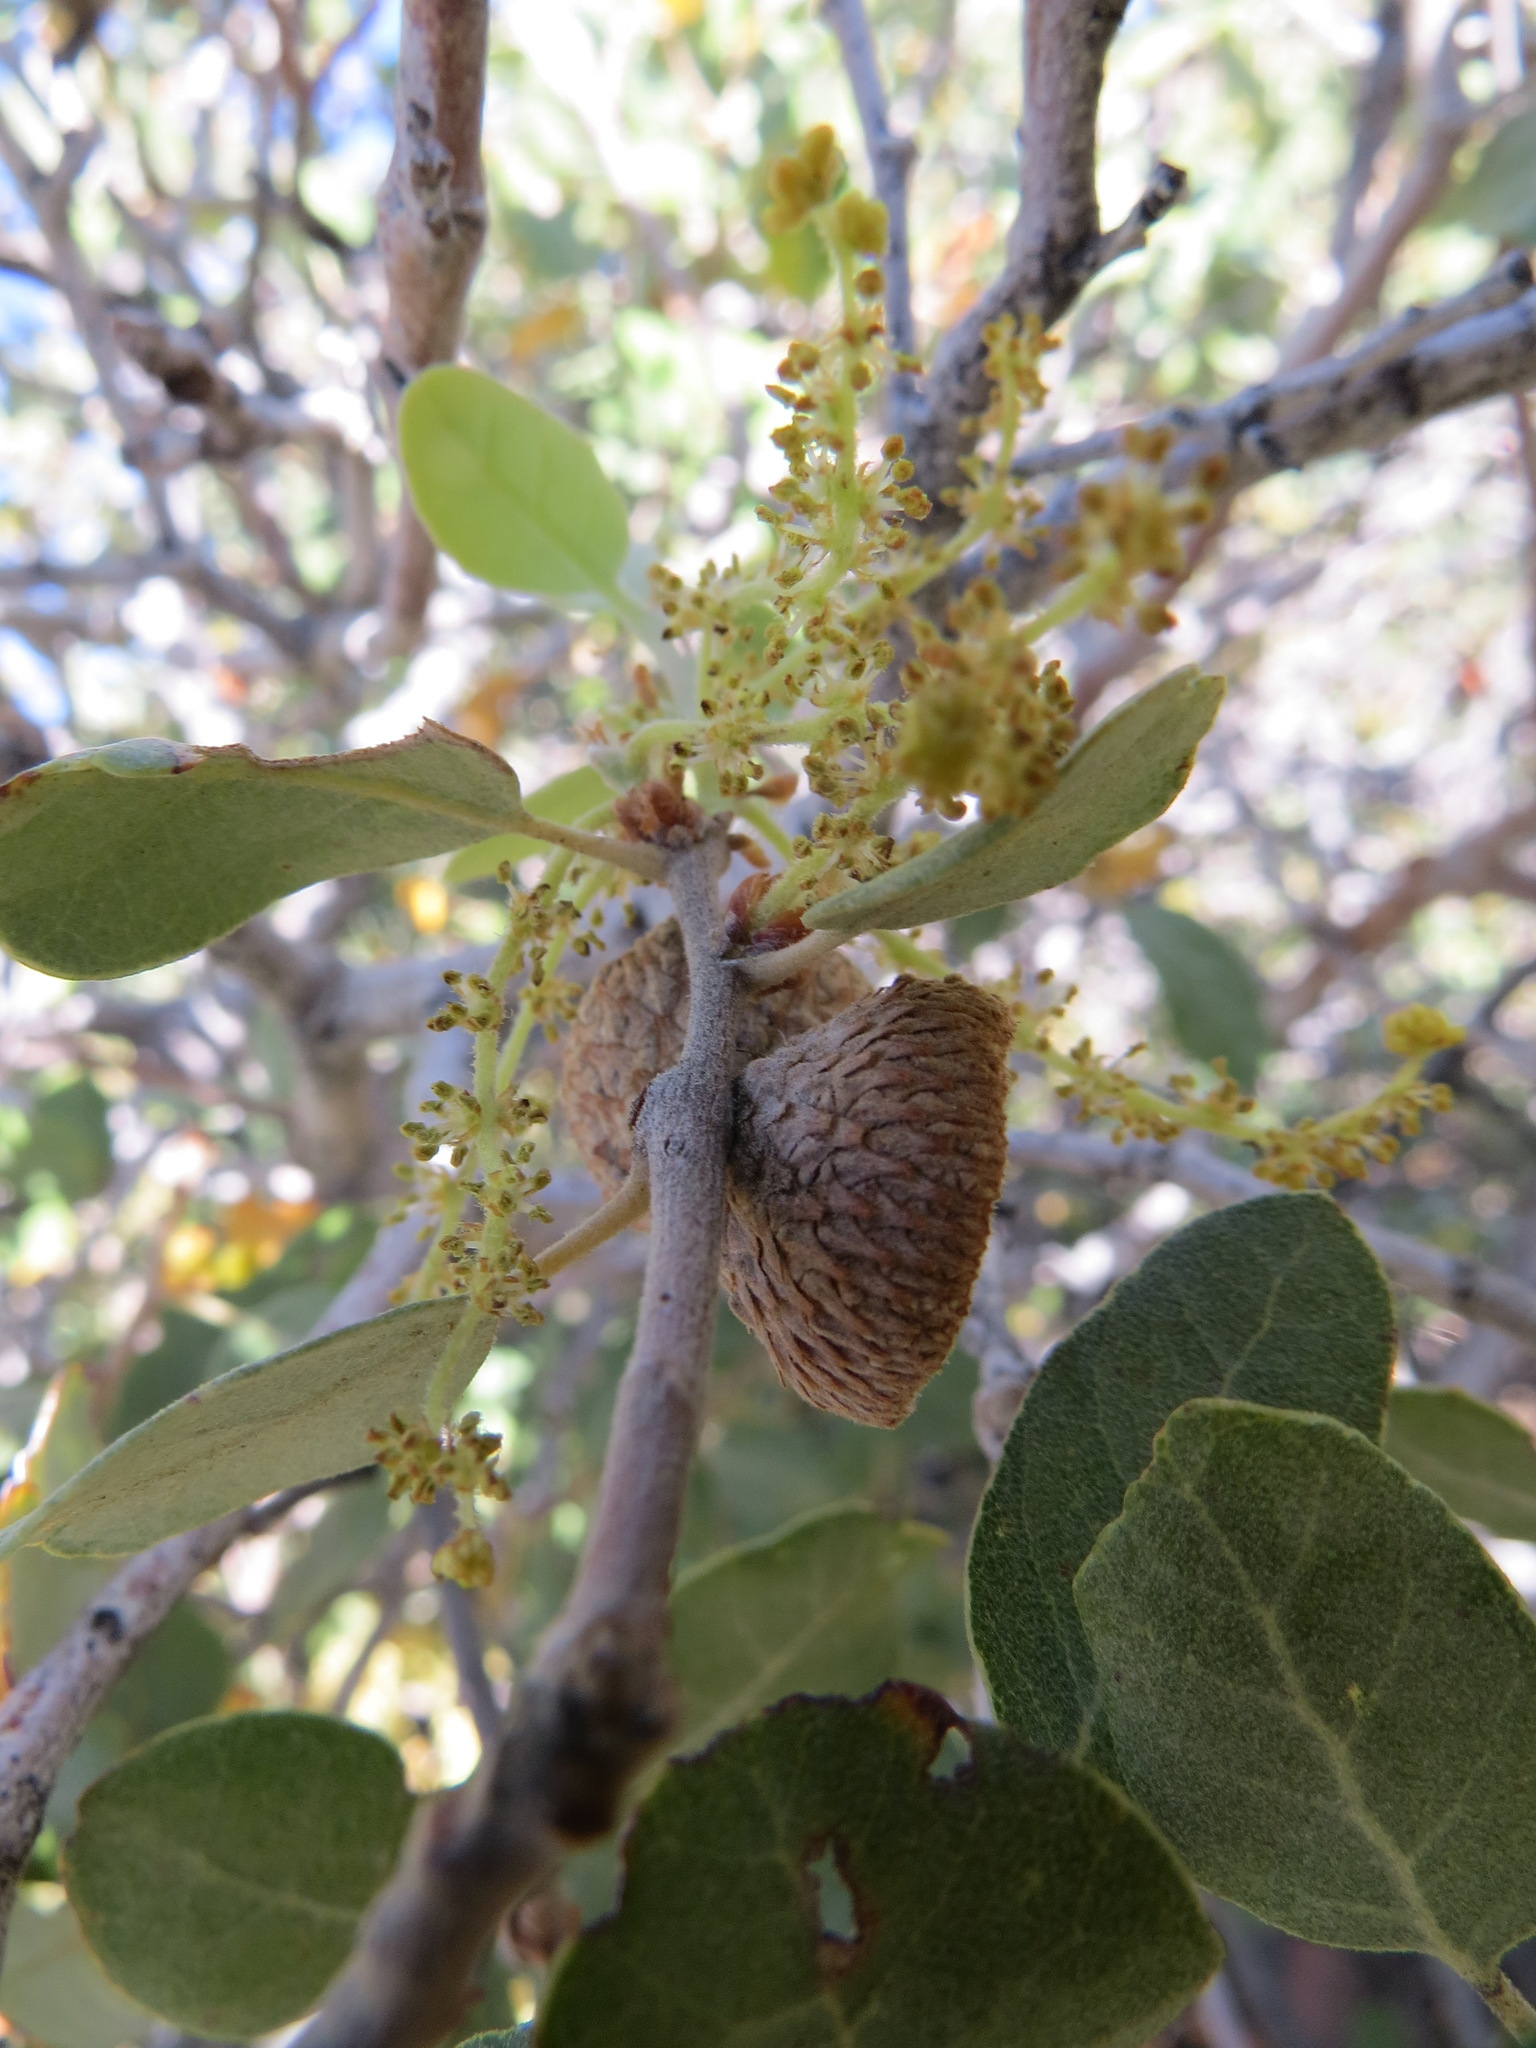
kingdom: Plantae
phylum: Tracheophyta
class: Magnoliopsida
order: Fagales
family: Fagaceae
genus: Quercus
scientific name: Quercus cornelius-mulleri
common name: Muller oak
